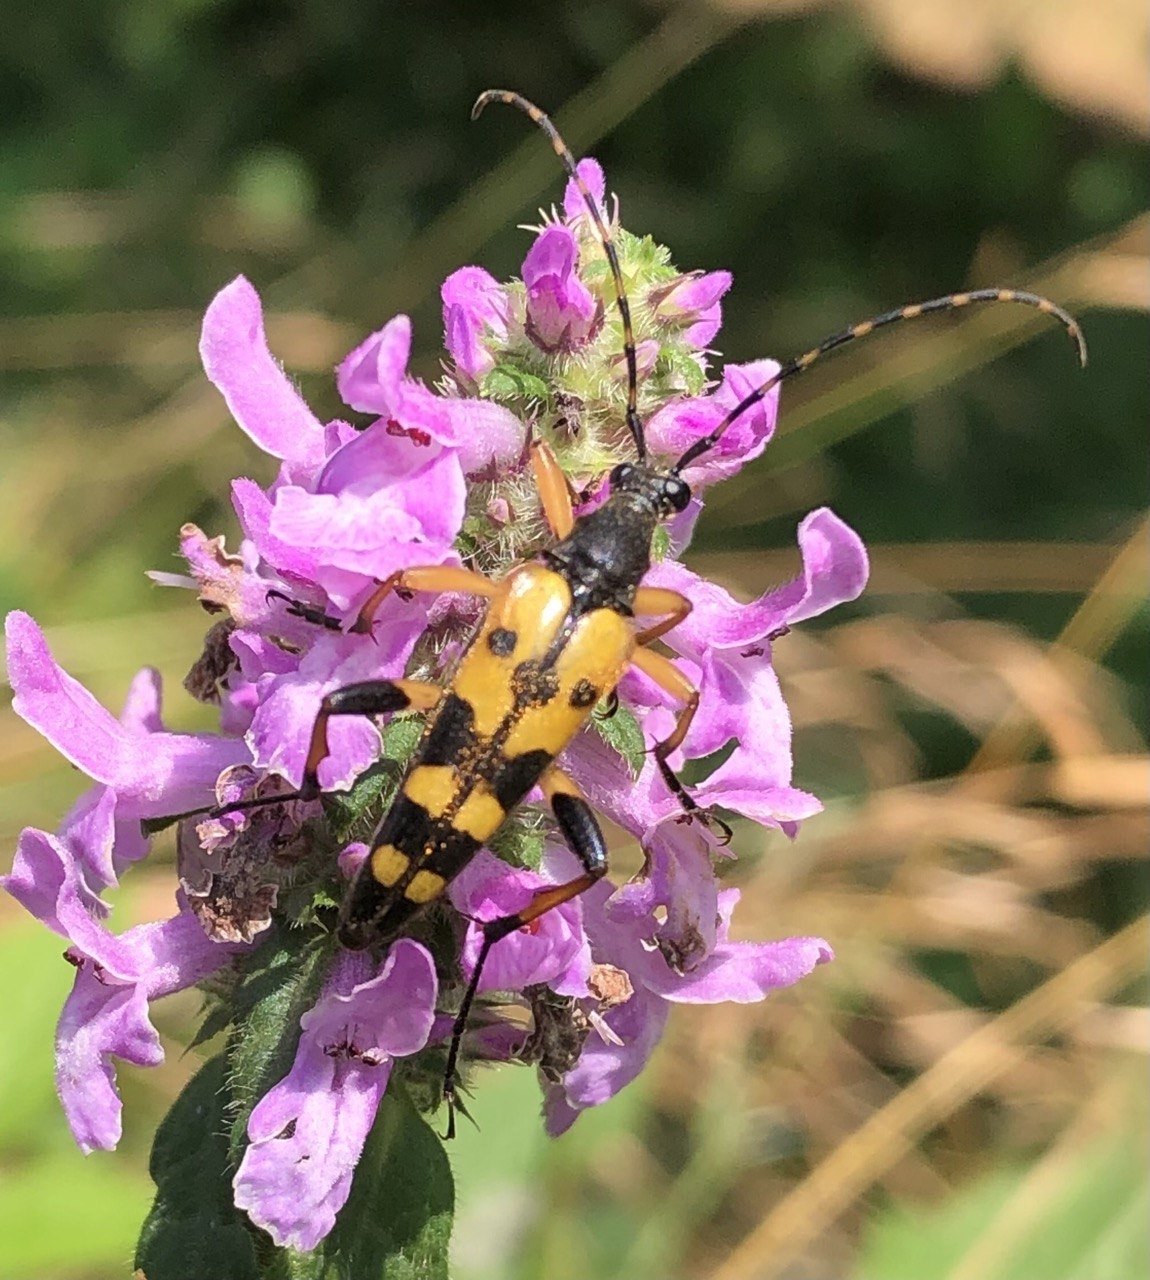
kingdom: Animalia
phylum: Arthropoda
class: Insecta
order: Coleoptera
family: Cerambycidae
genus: Rutpela
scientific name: Rutpela maculata
